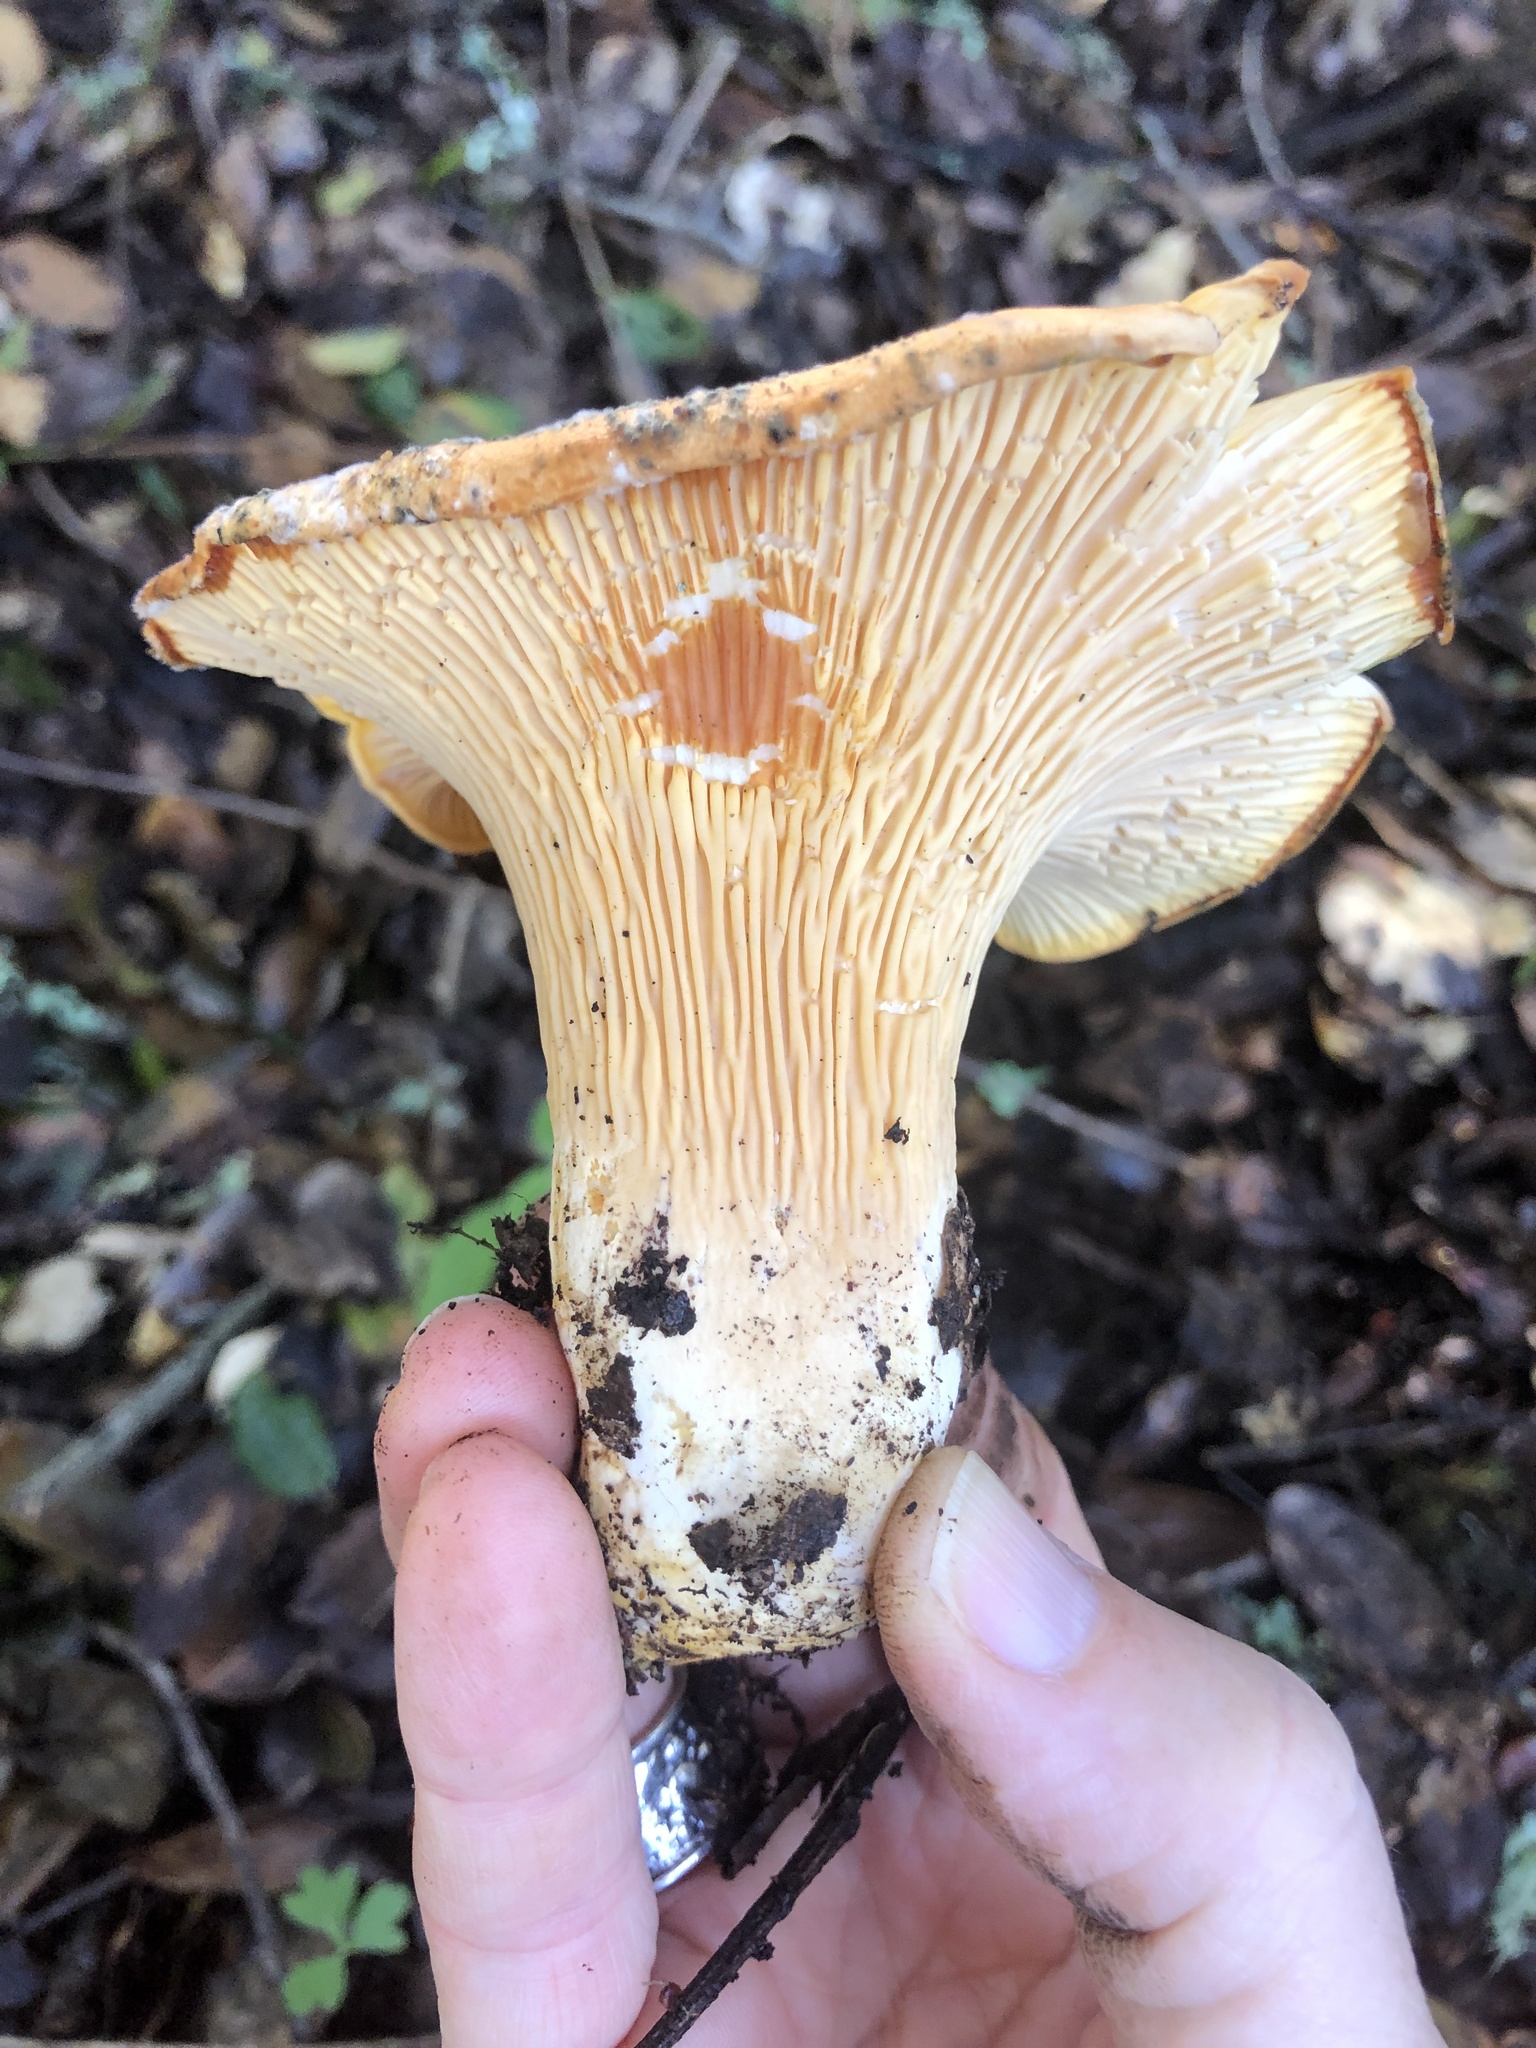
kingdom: Fungi
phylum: Basidiomycota
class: Agaricomycetes
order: Cantharellales
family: Hydnaceae
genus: Cantharellus
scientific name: Cantharellus californicus
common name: California golden chanterelle
